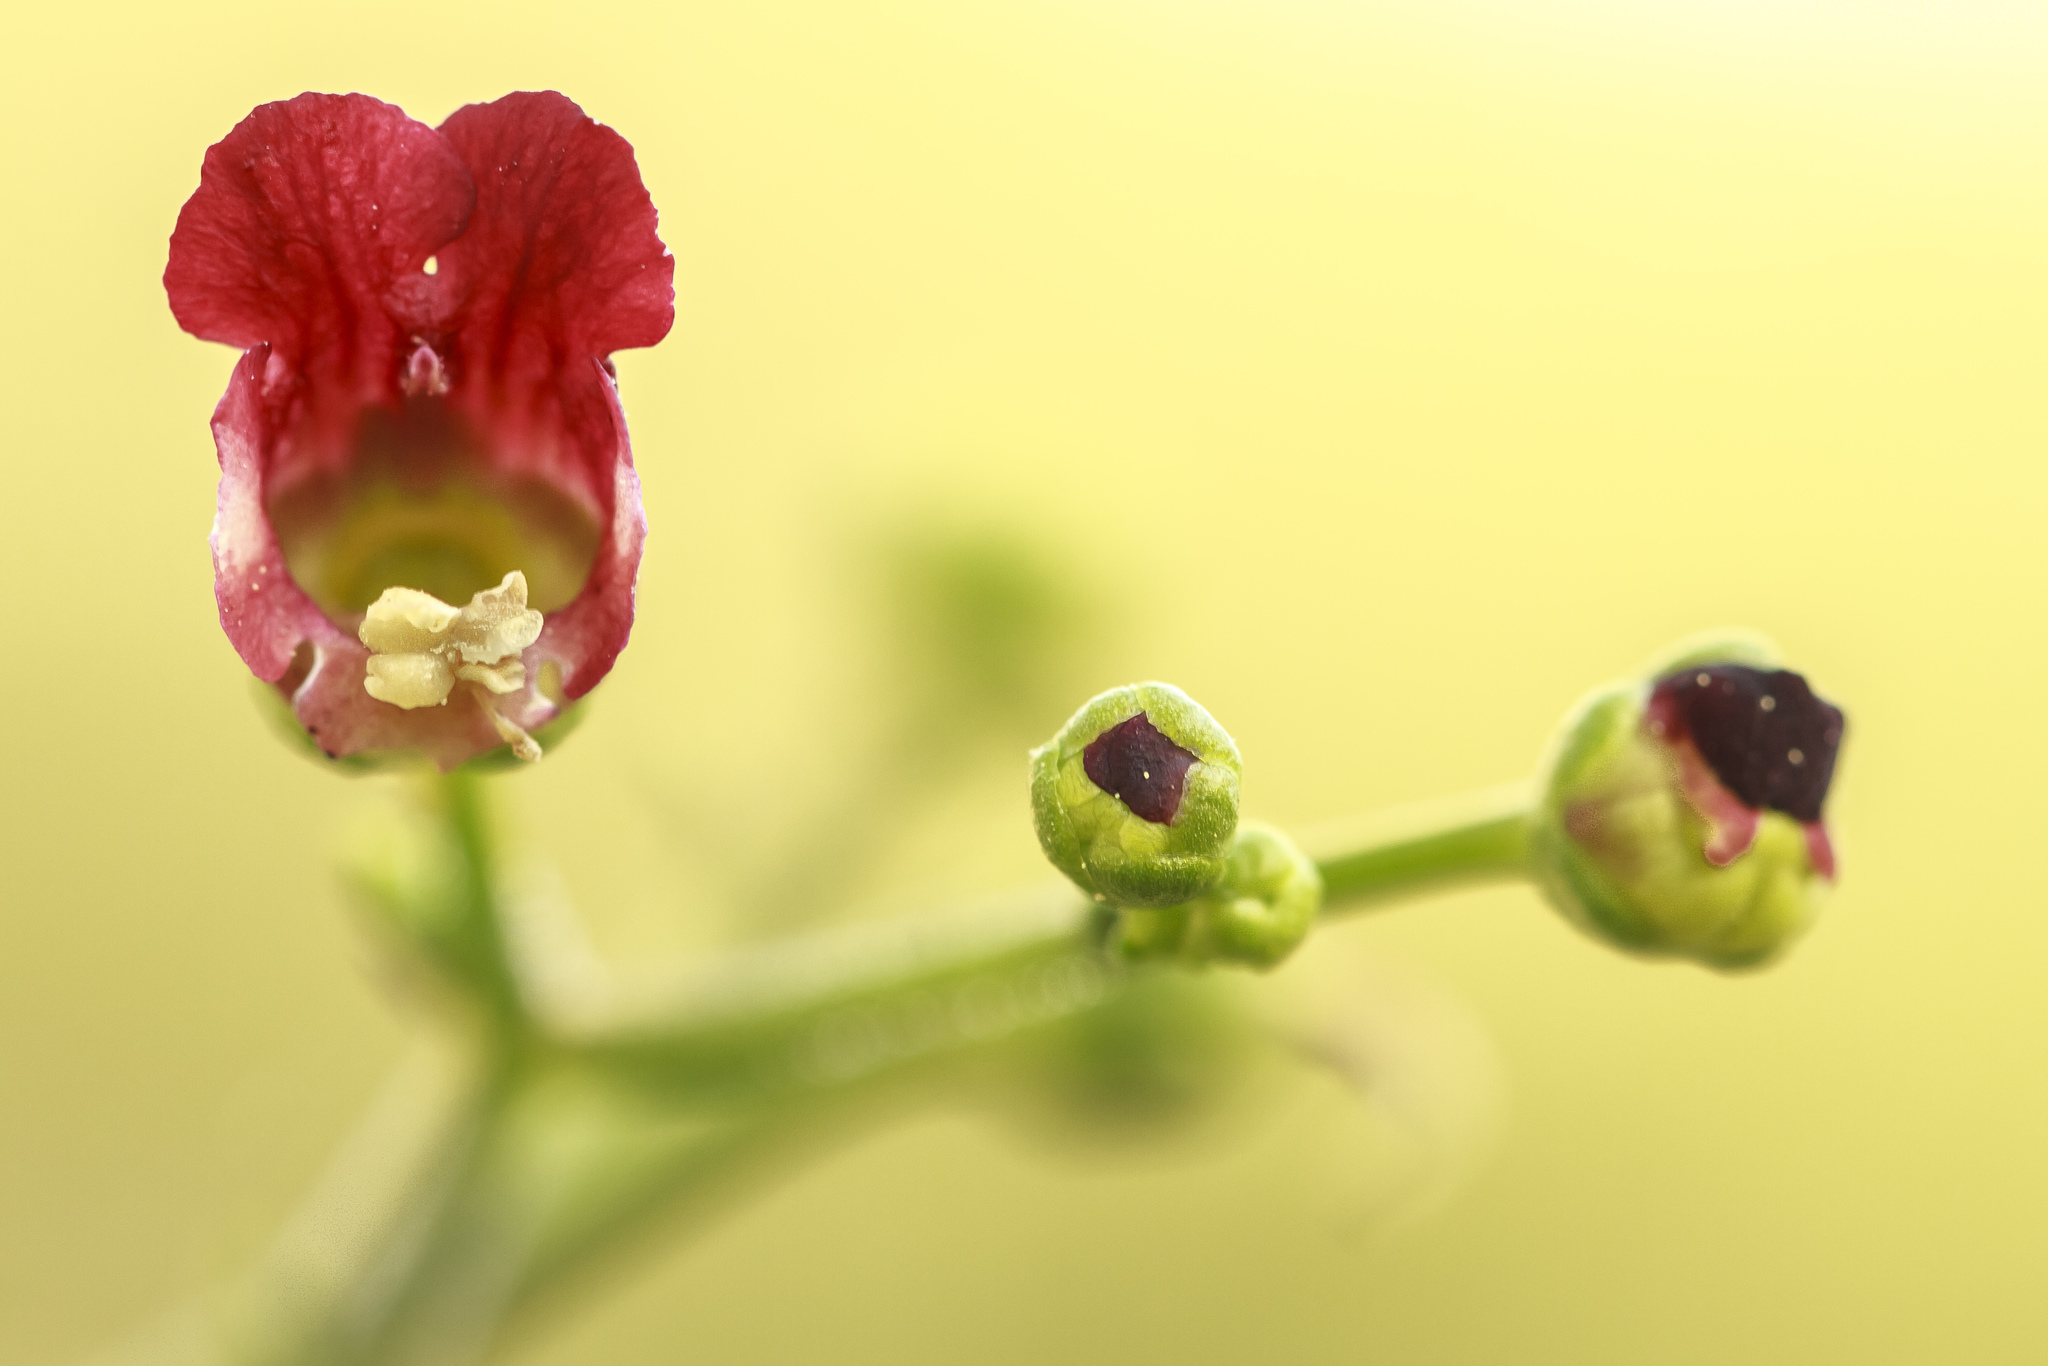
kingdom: Plantae
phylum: Tracheophyta
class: Magnoliopsida
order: Lamiales
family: Scrophulariaceae
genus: Scrophularia
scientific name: Scrophularia californica
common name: California figwort
